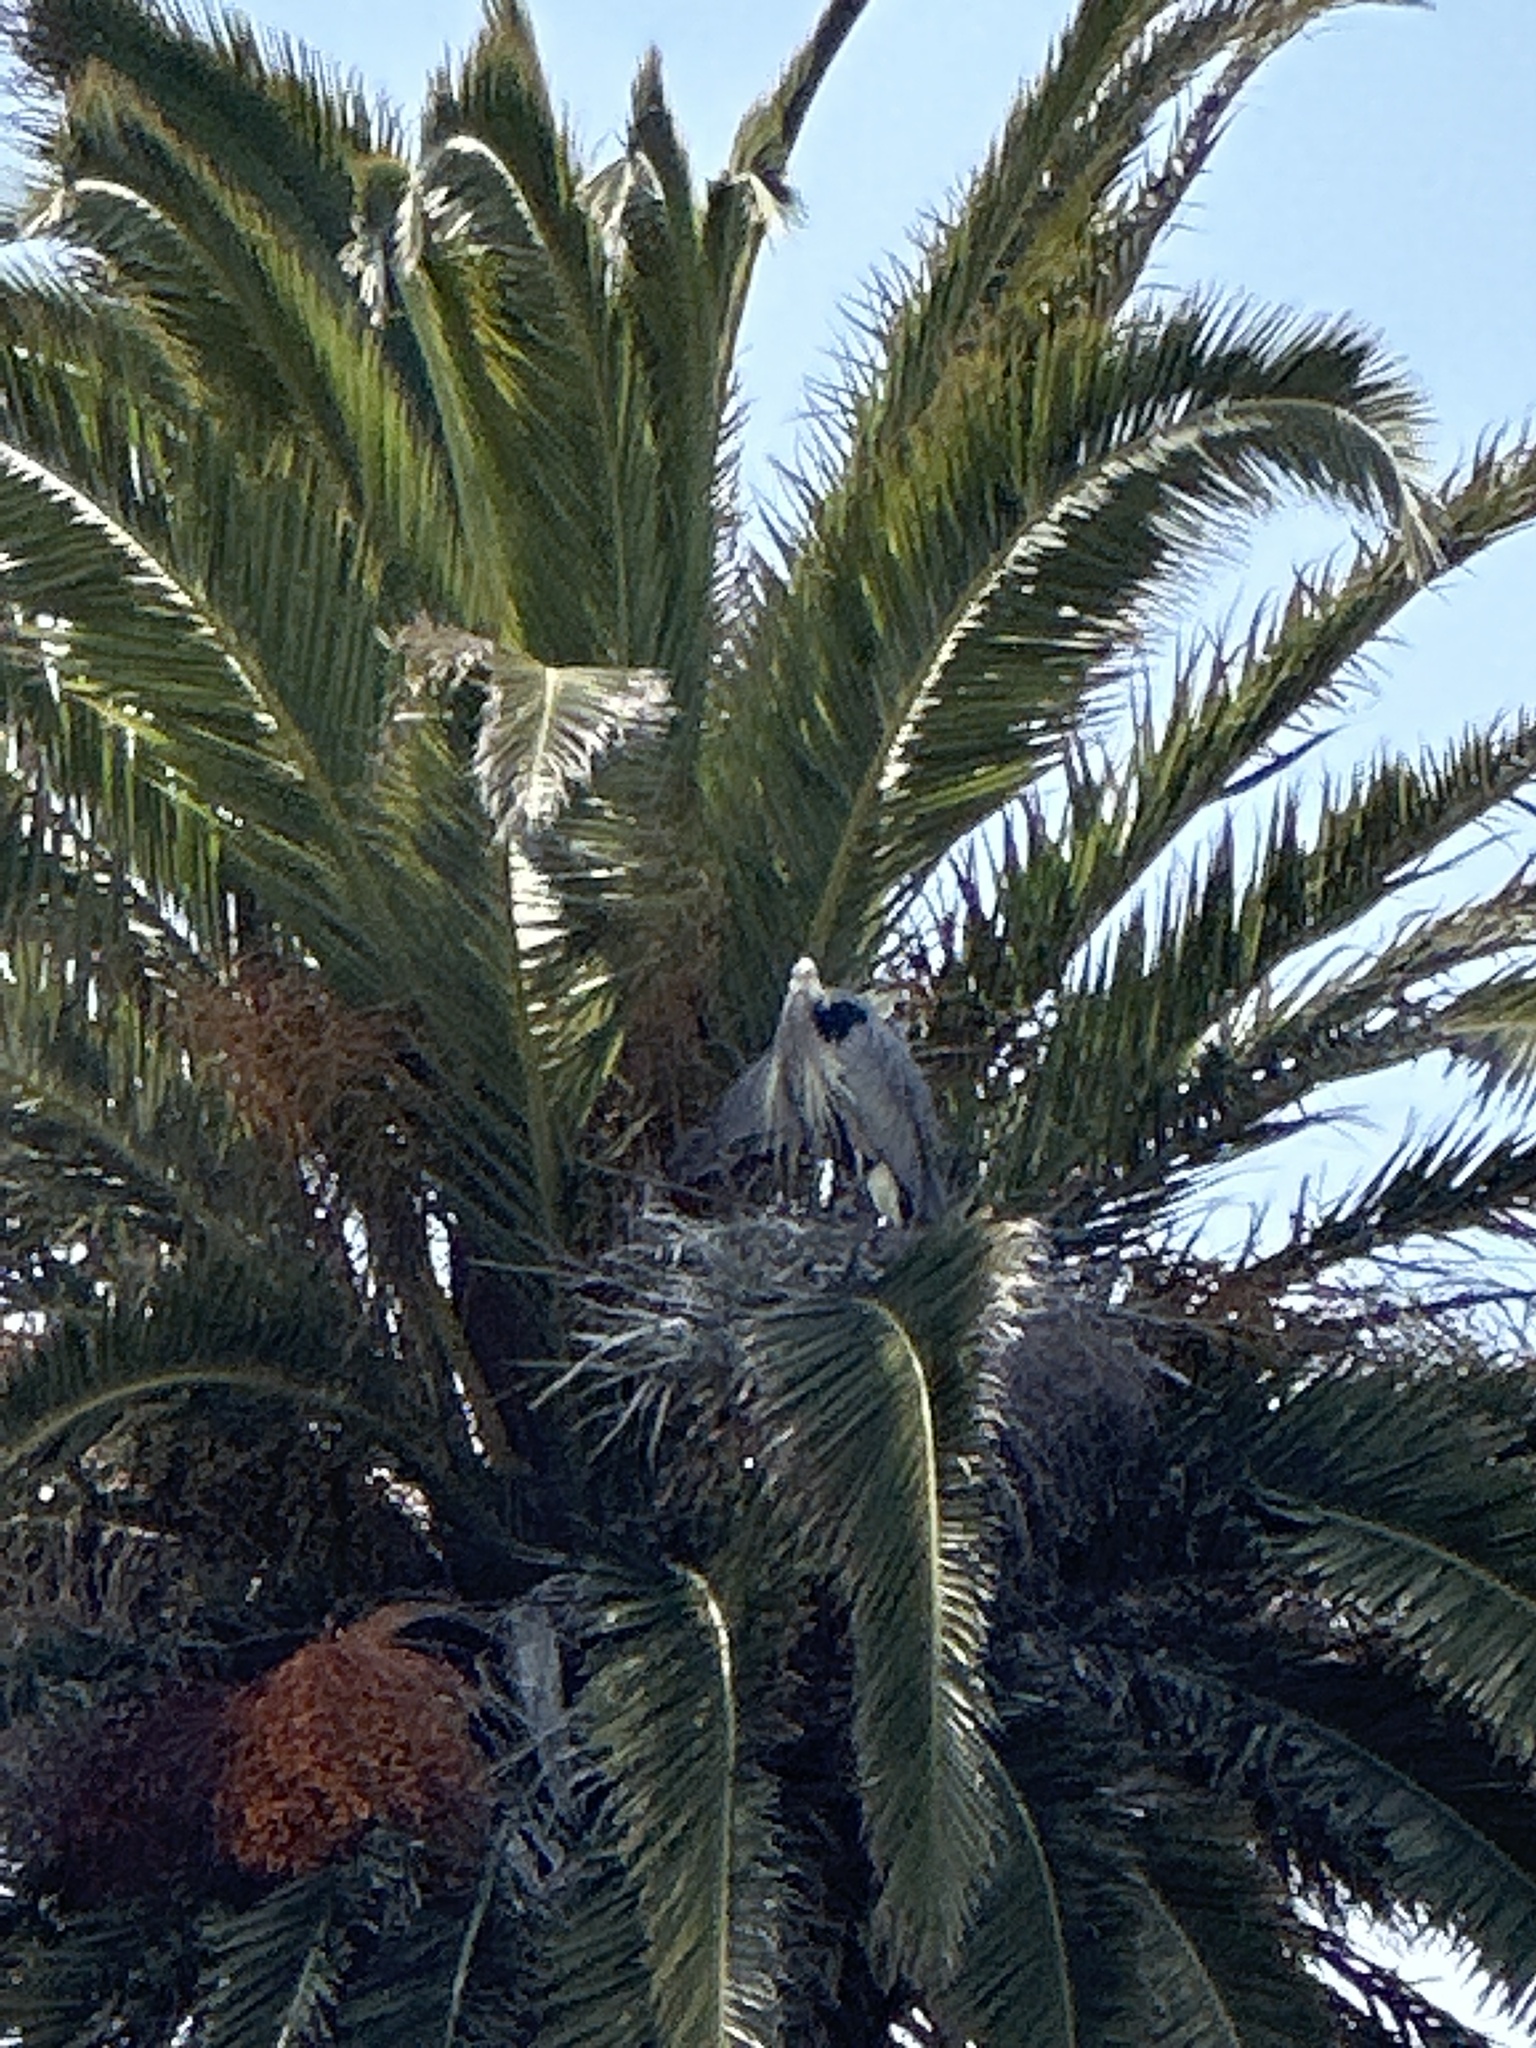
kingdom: Animalia
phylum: Chordata
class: Aves
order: Pelecaniformes
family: Ardeidae
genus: Ardea
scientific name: Ardea herodias
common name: Great blue heron
